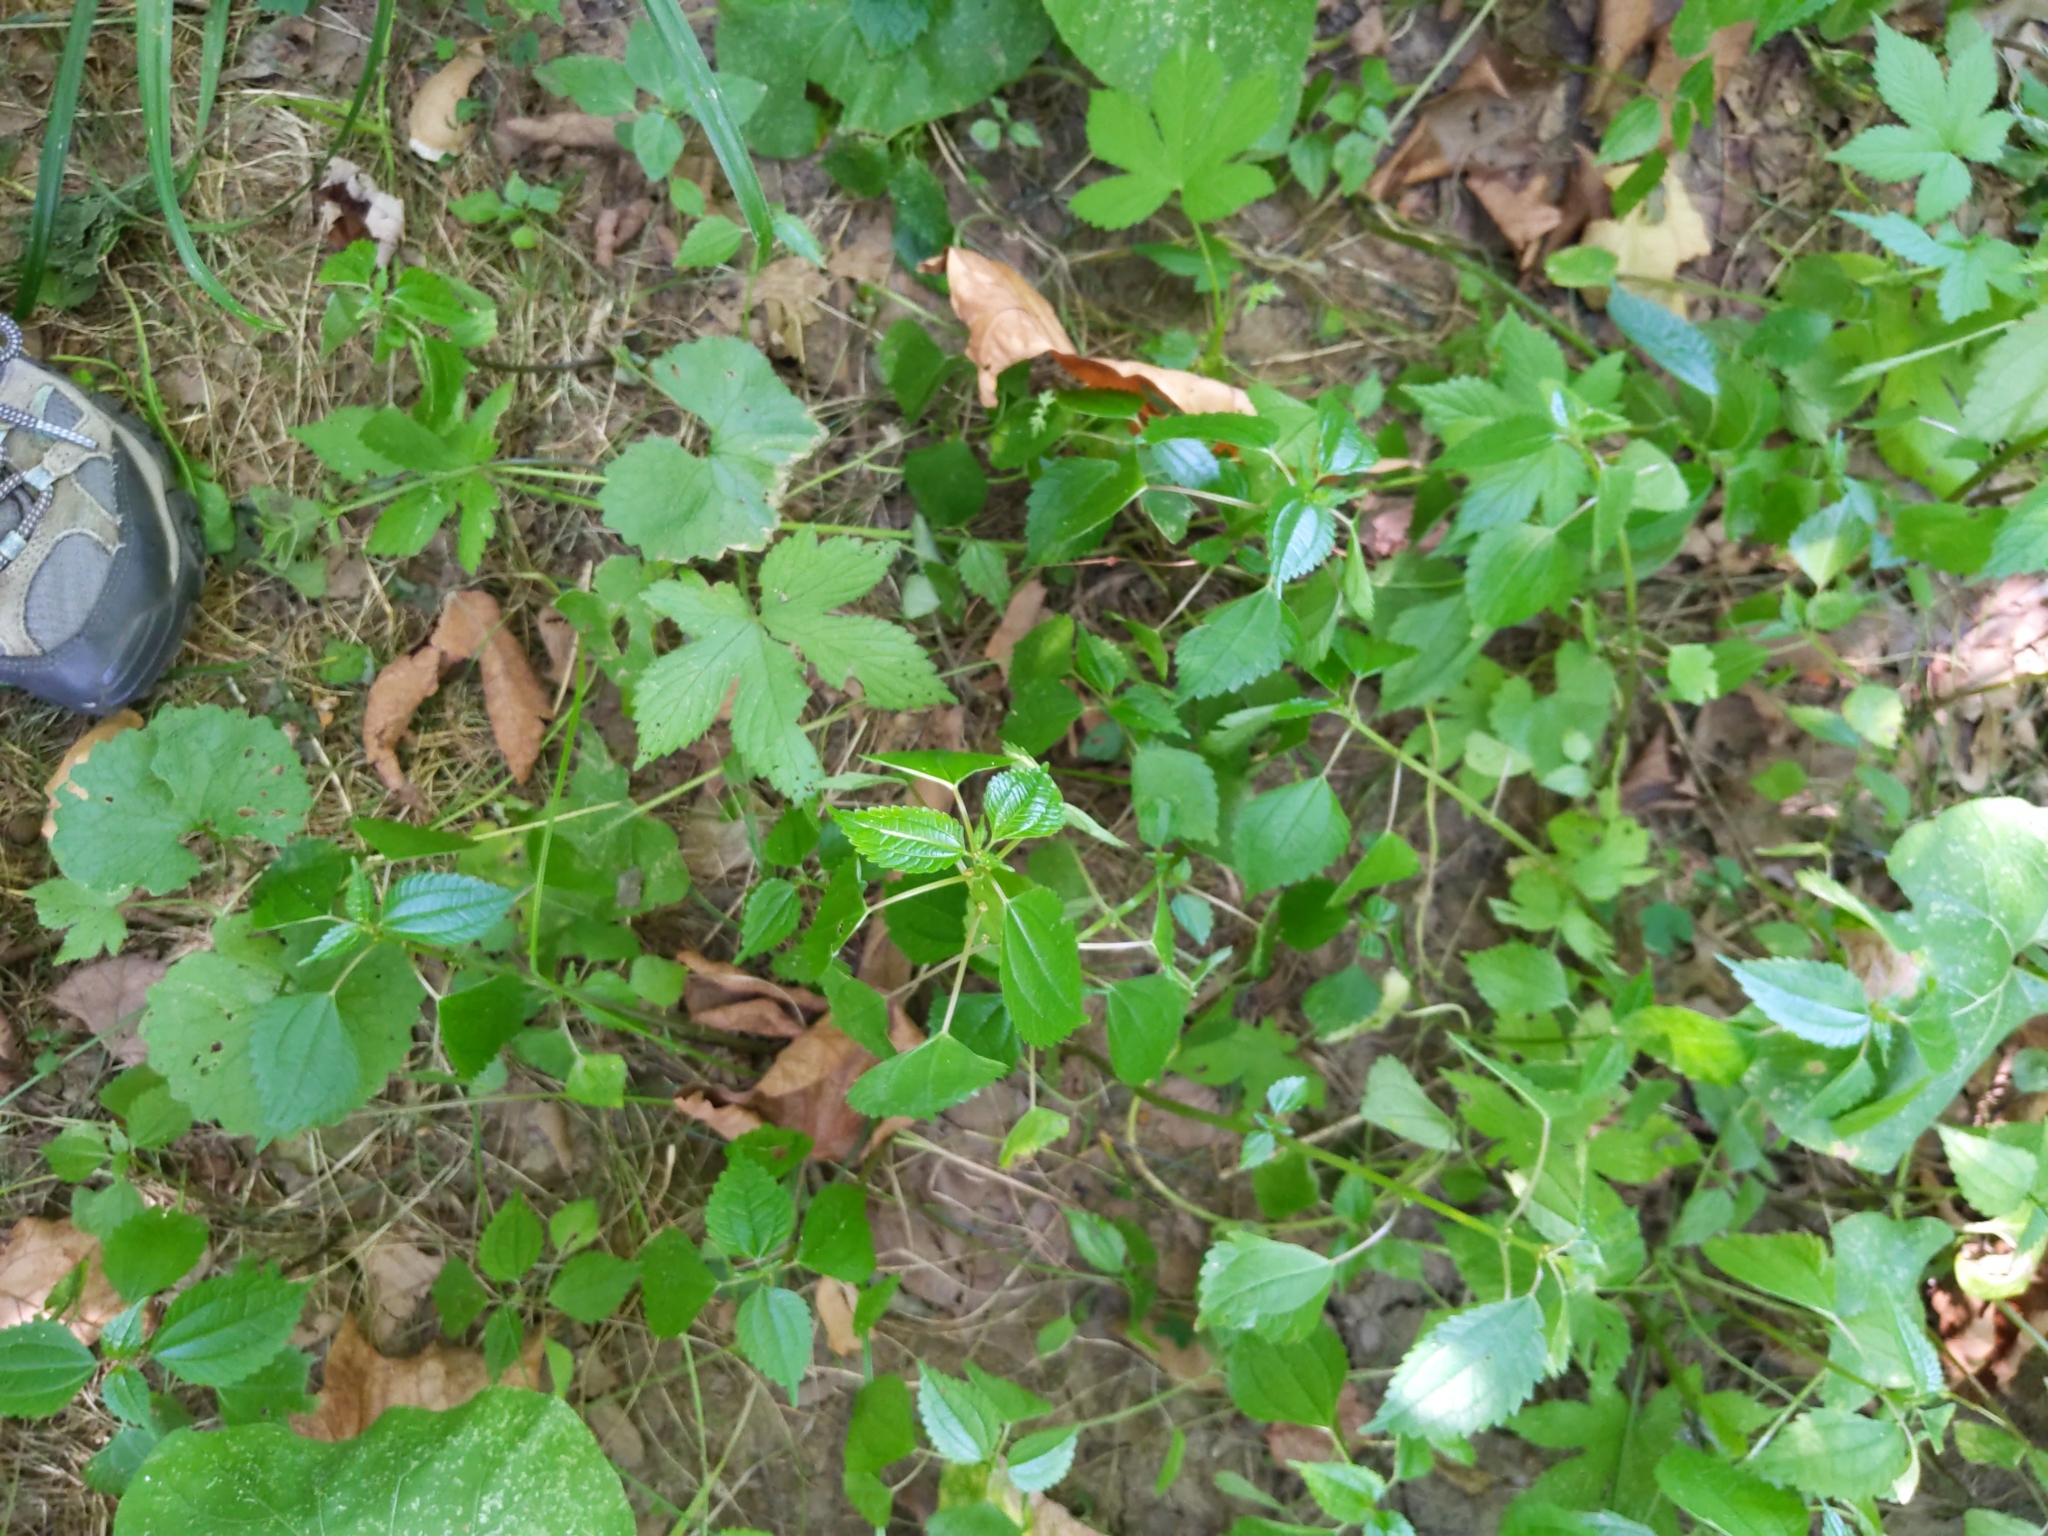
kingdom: Plantae
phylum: Tracheophyta
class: Magnoliopsida
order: Rosales
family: Urticaceae
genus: Pilea
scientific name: Pilea pumila
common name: Clearweed
